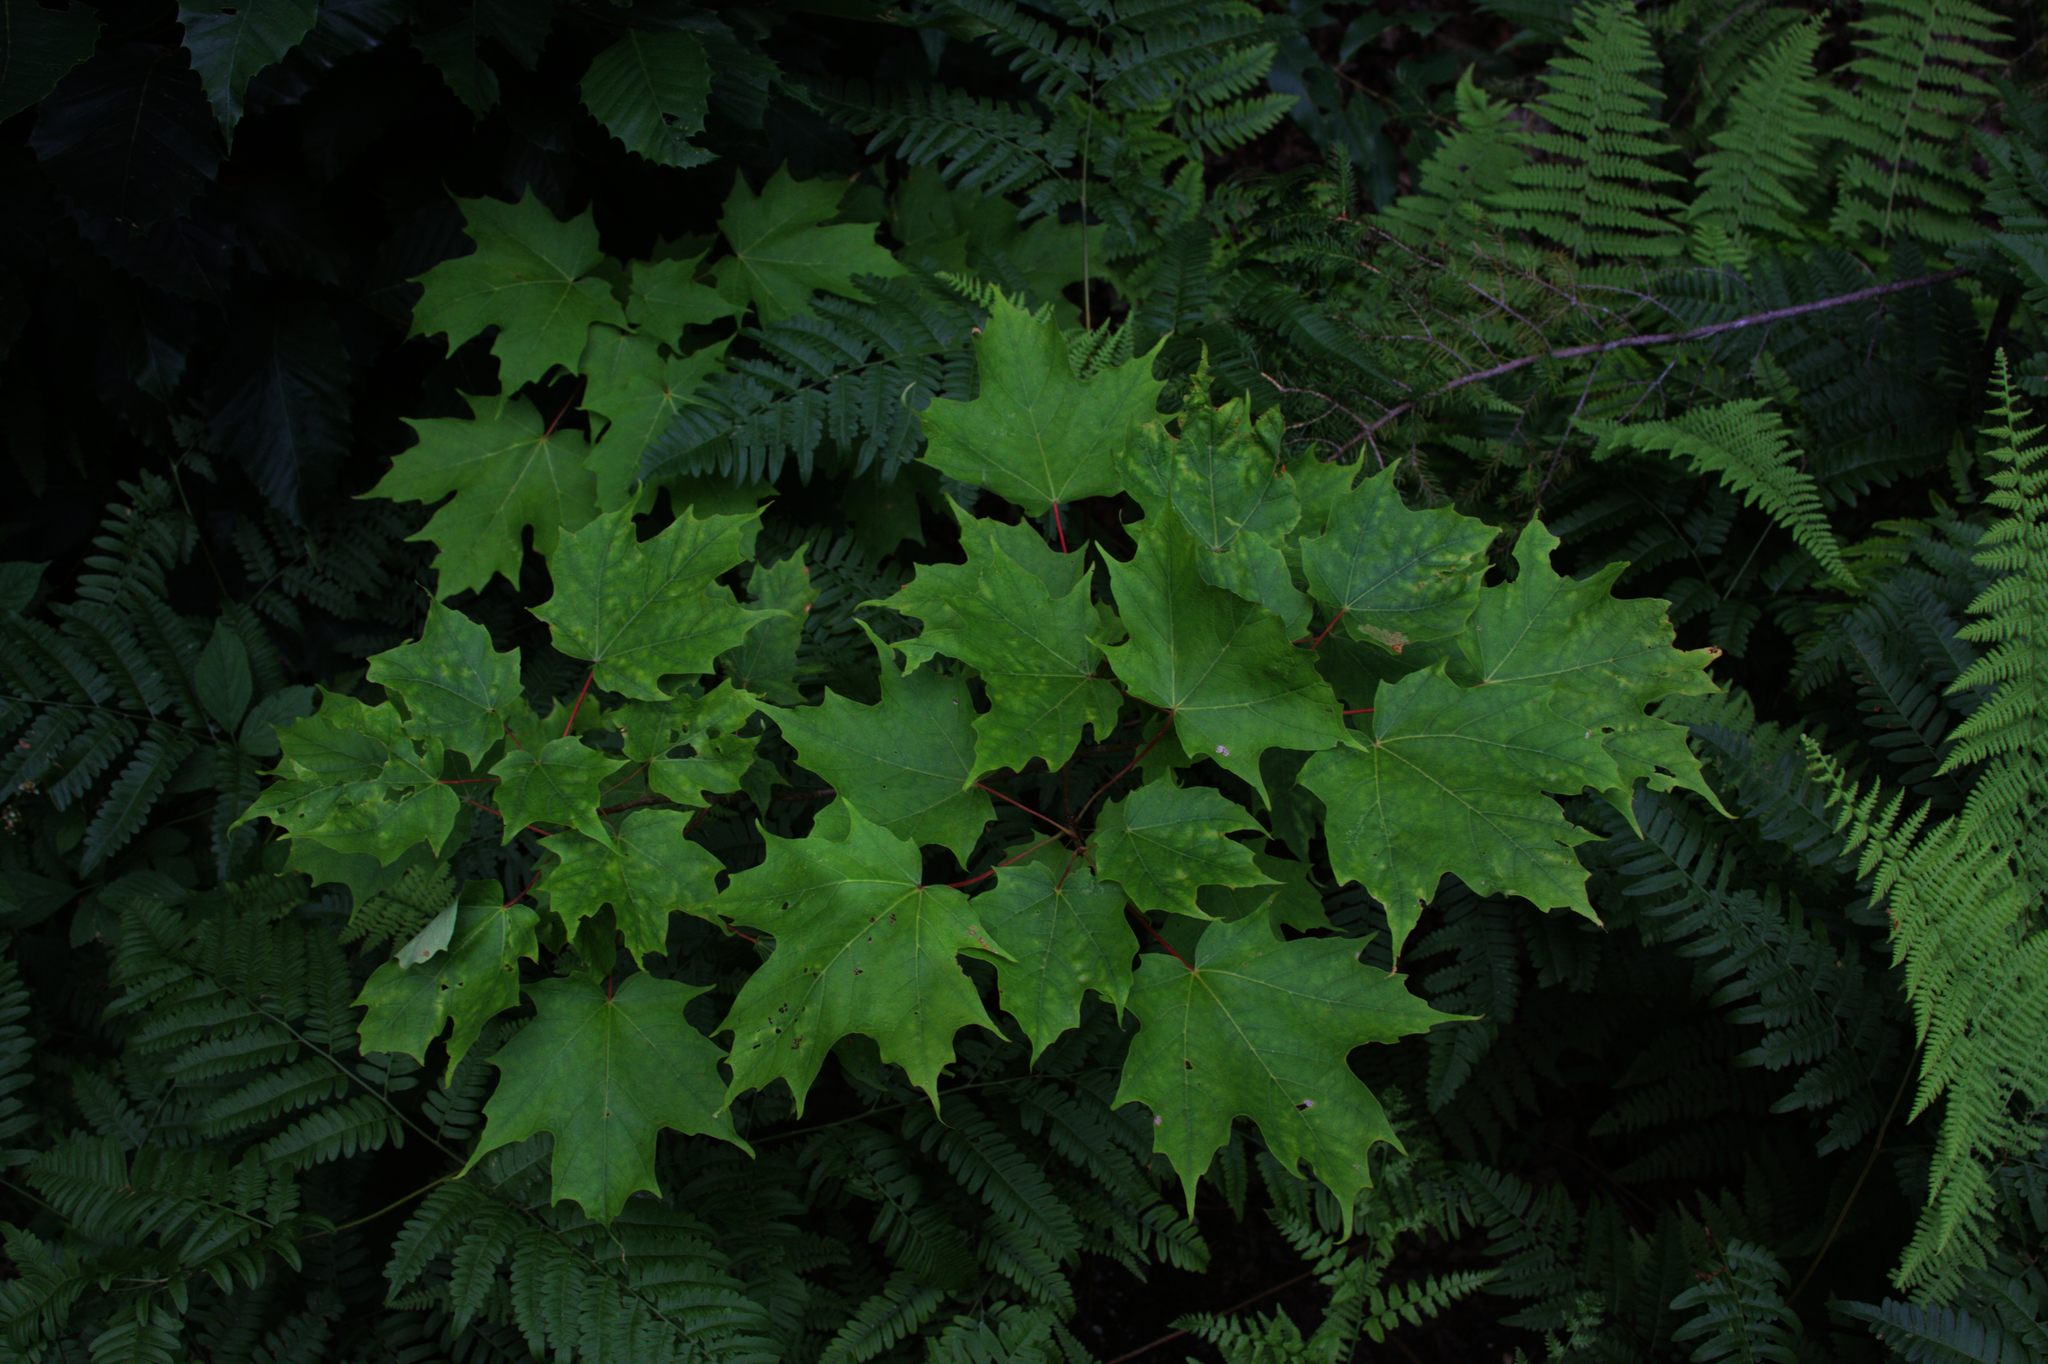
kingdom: Plantae
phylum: Tracheophyta
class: Magnoliopsida
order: Sapindales
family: Sapindaceae
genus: Acer
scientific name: Acer saccharum
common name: Sugar maple
